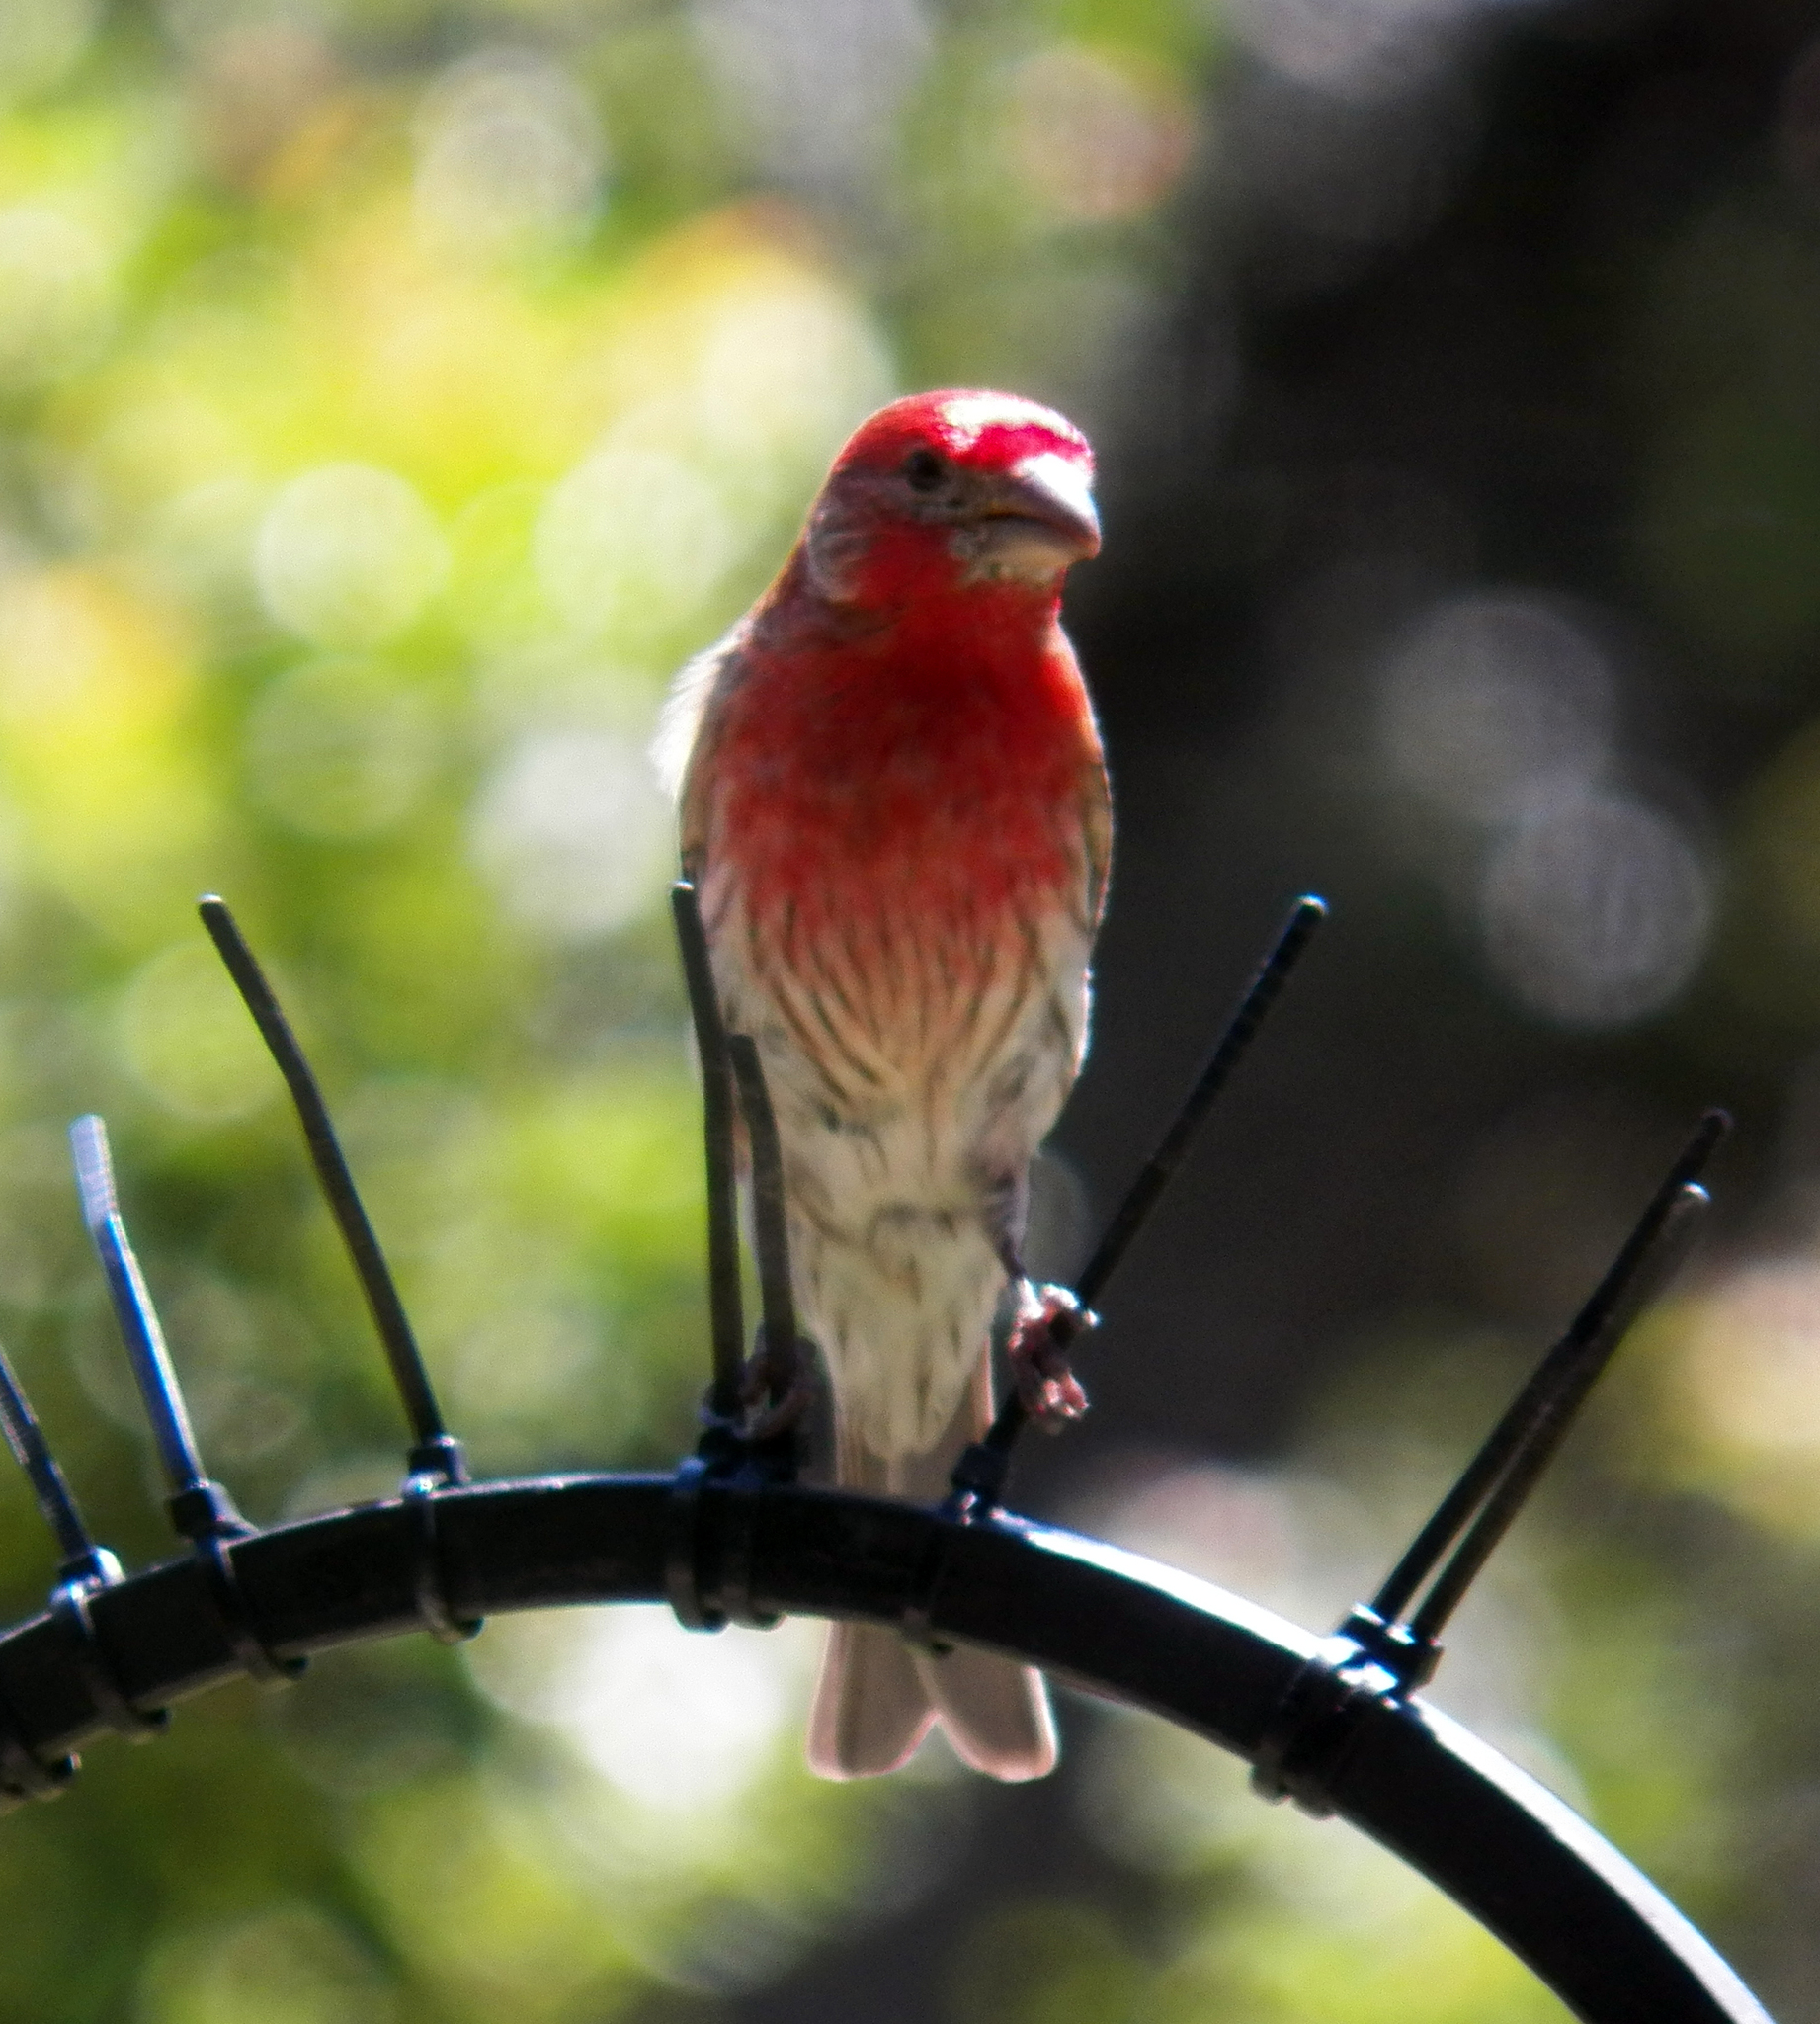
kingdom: Animalia
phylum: Chordata
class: Aves
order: Passeriformes
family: Fringillidae
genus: Haemorhous
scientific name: Haemorhous mexicanus
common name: House finch
